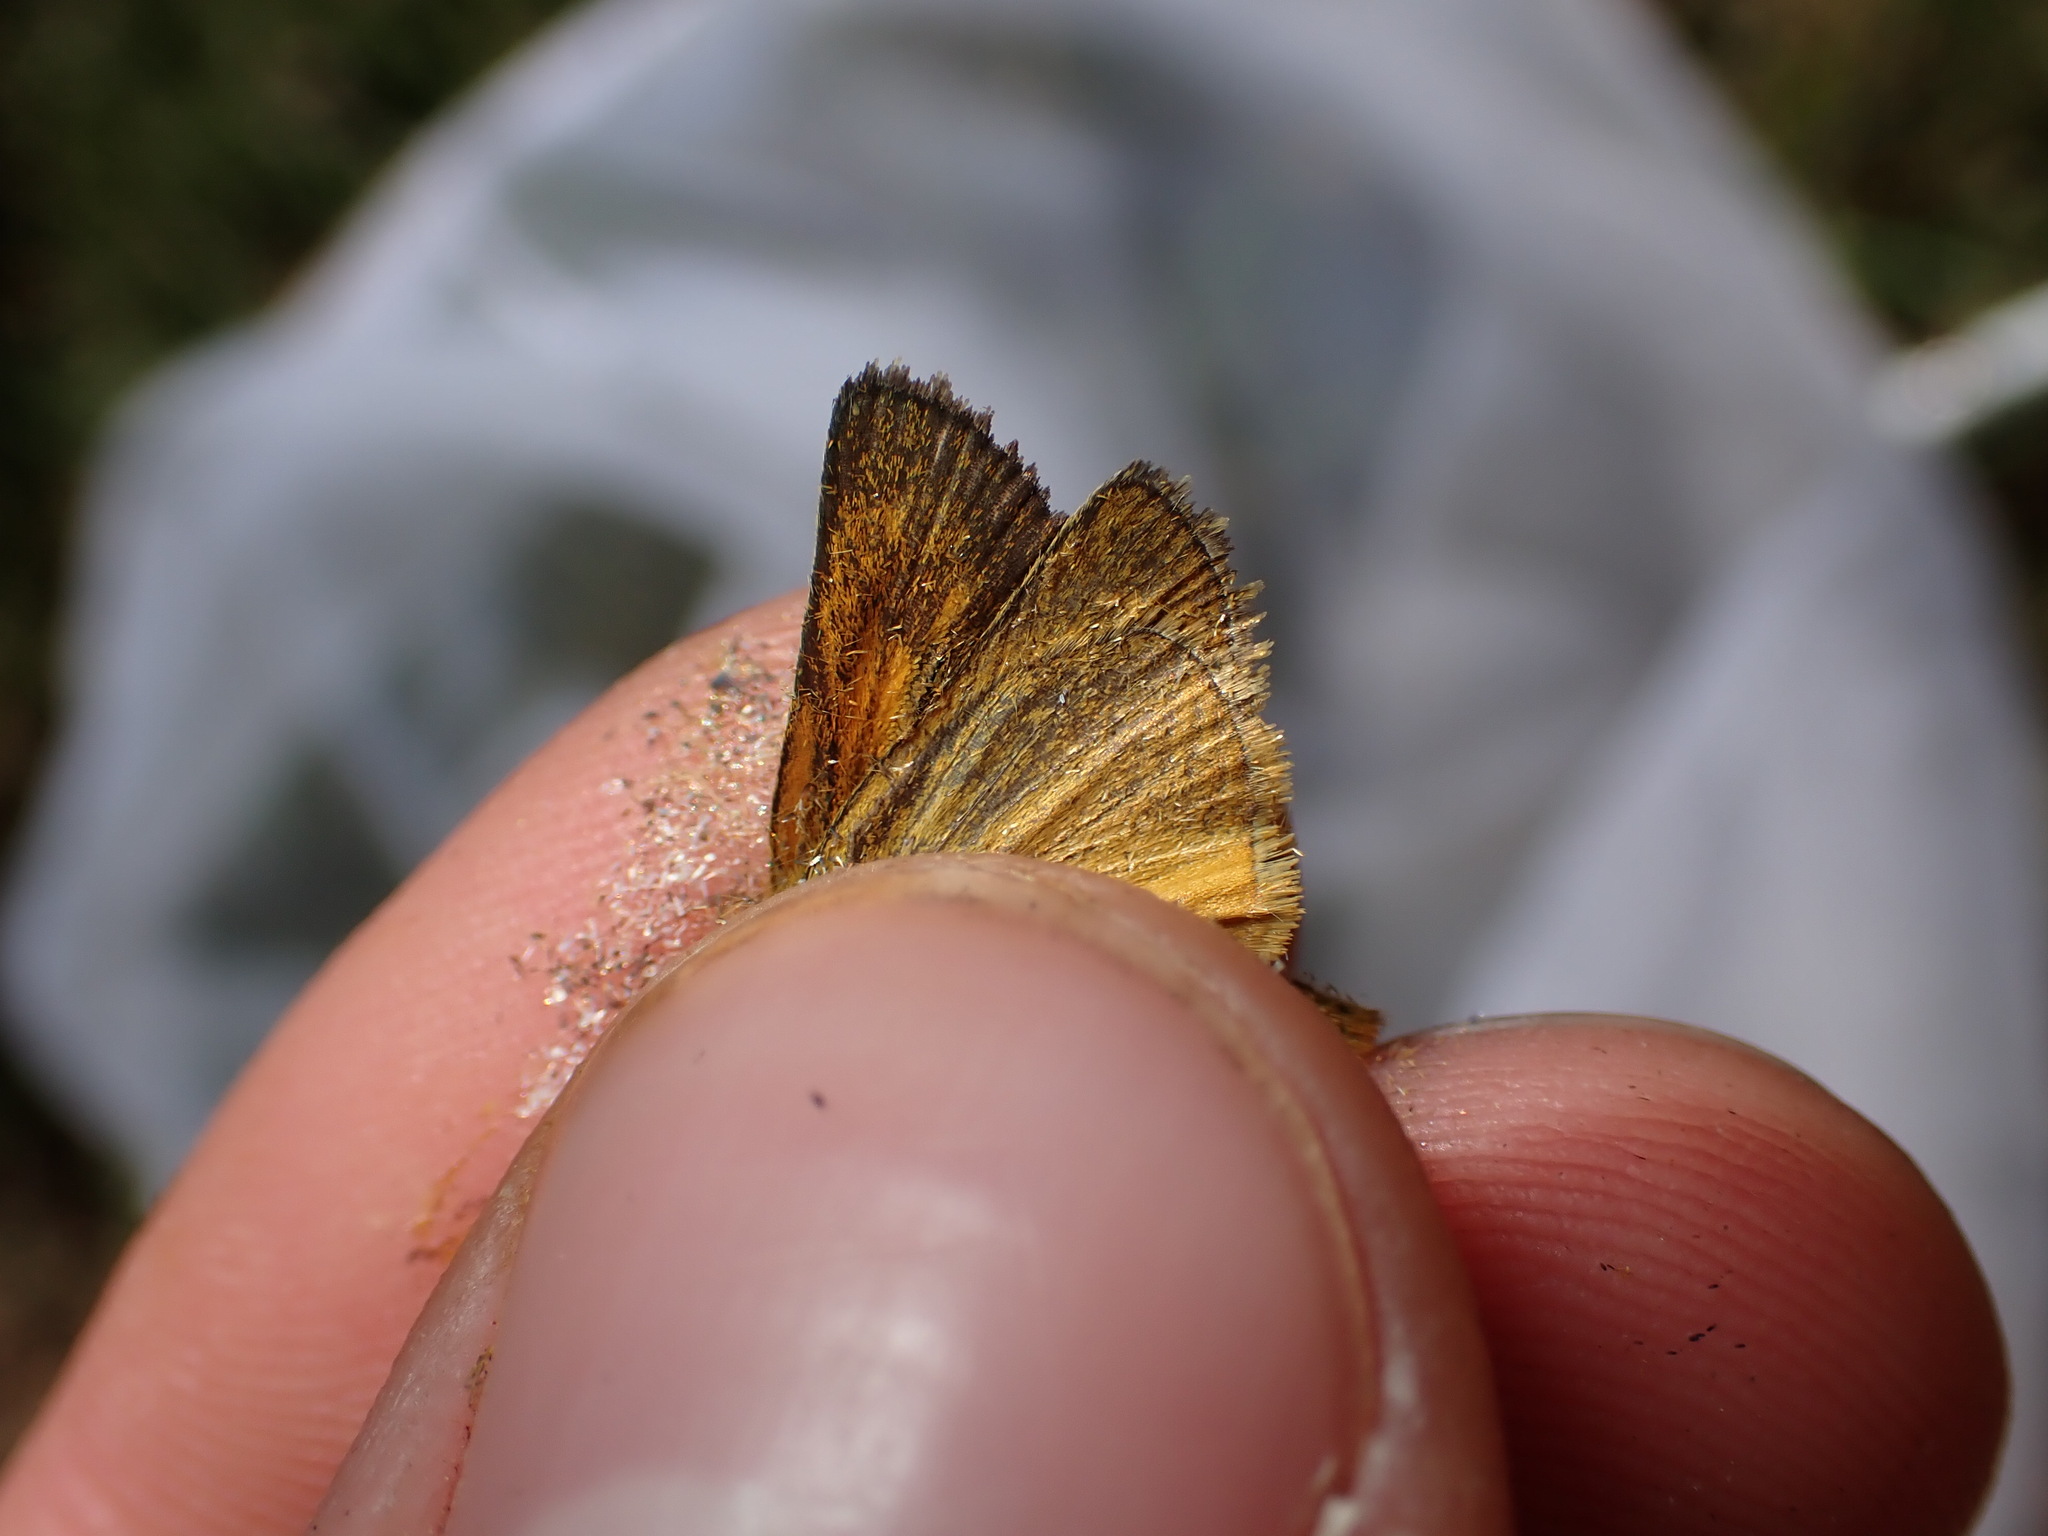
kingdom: Animalia
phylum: Arthropoda
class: Insecta
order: Lepidoptera
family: Hesperiidae
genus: Thymelicus
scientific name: Thymelicus acteon
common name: Lulworth skipper
